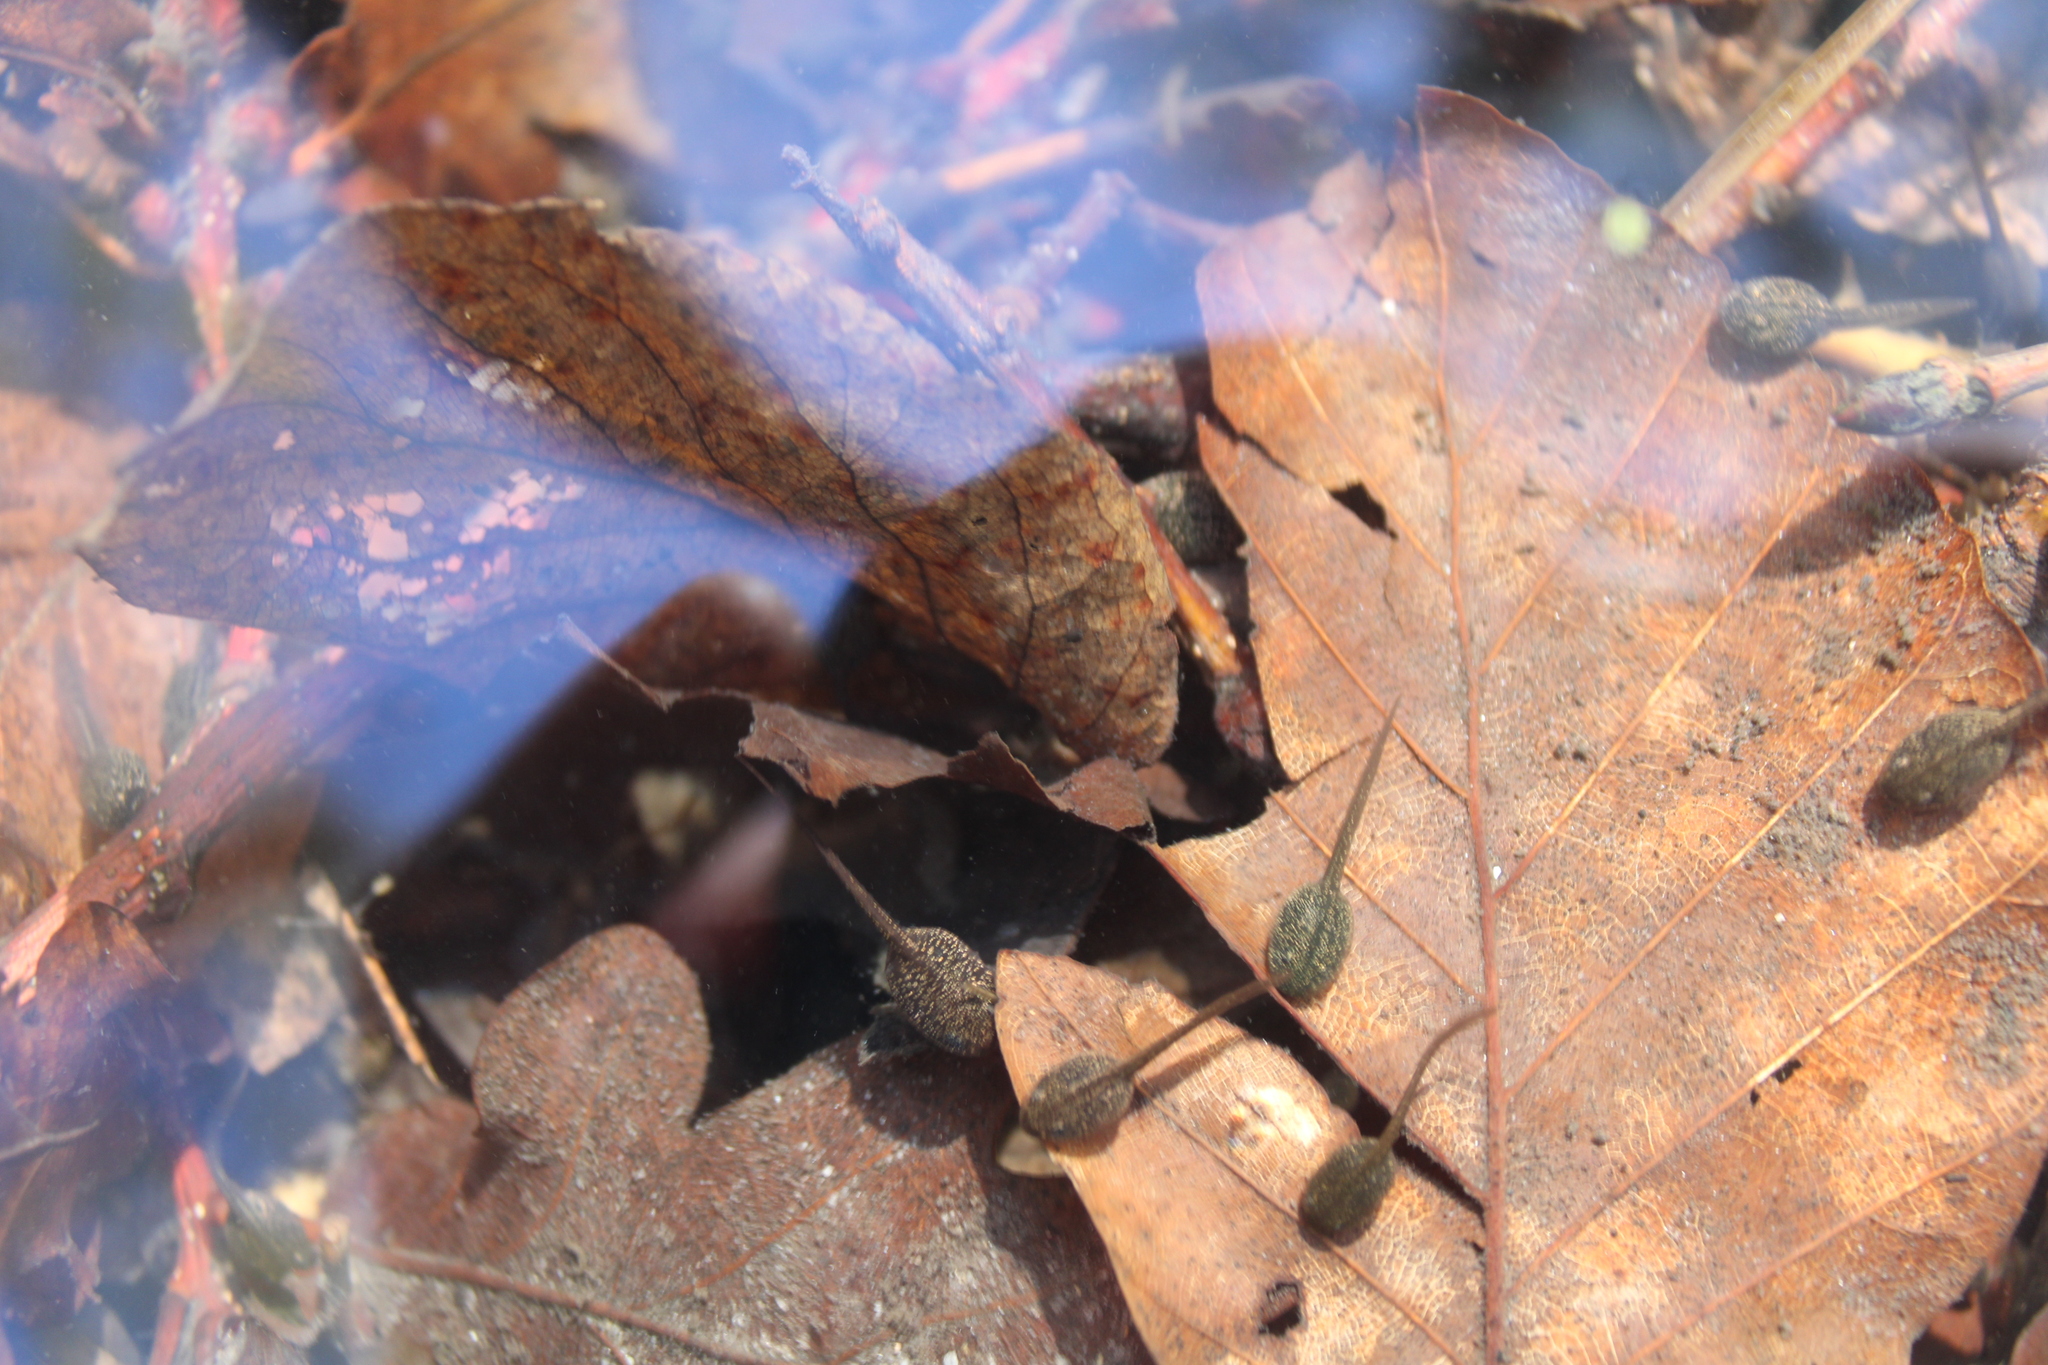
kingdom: Animalia
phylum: Chordata
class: Amphibia
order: Anura
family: Ranidae
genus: Rana
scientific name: Rana temporaria
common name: Common frog
